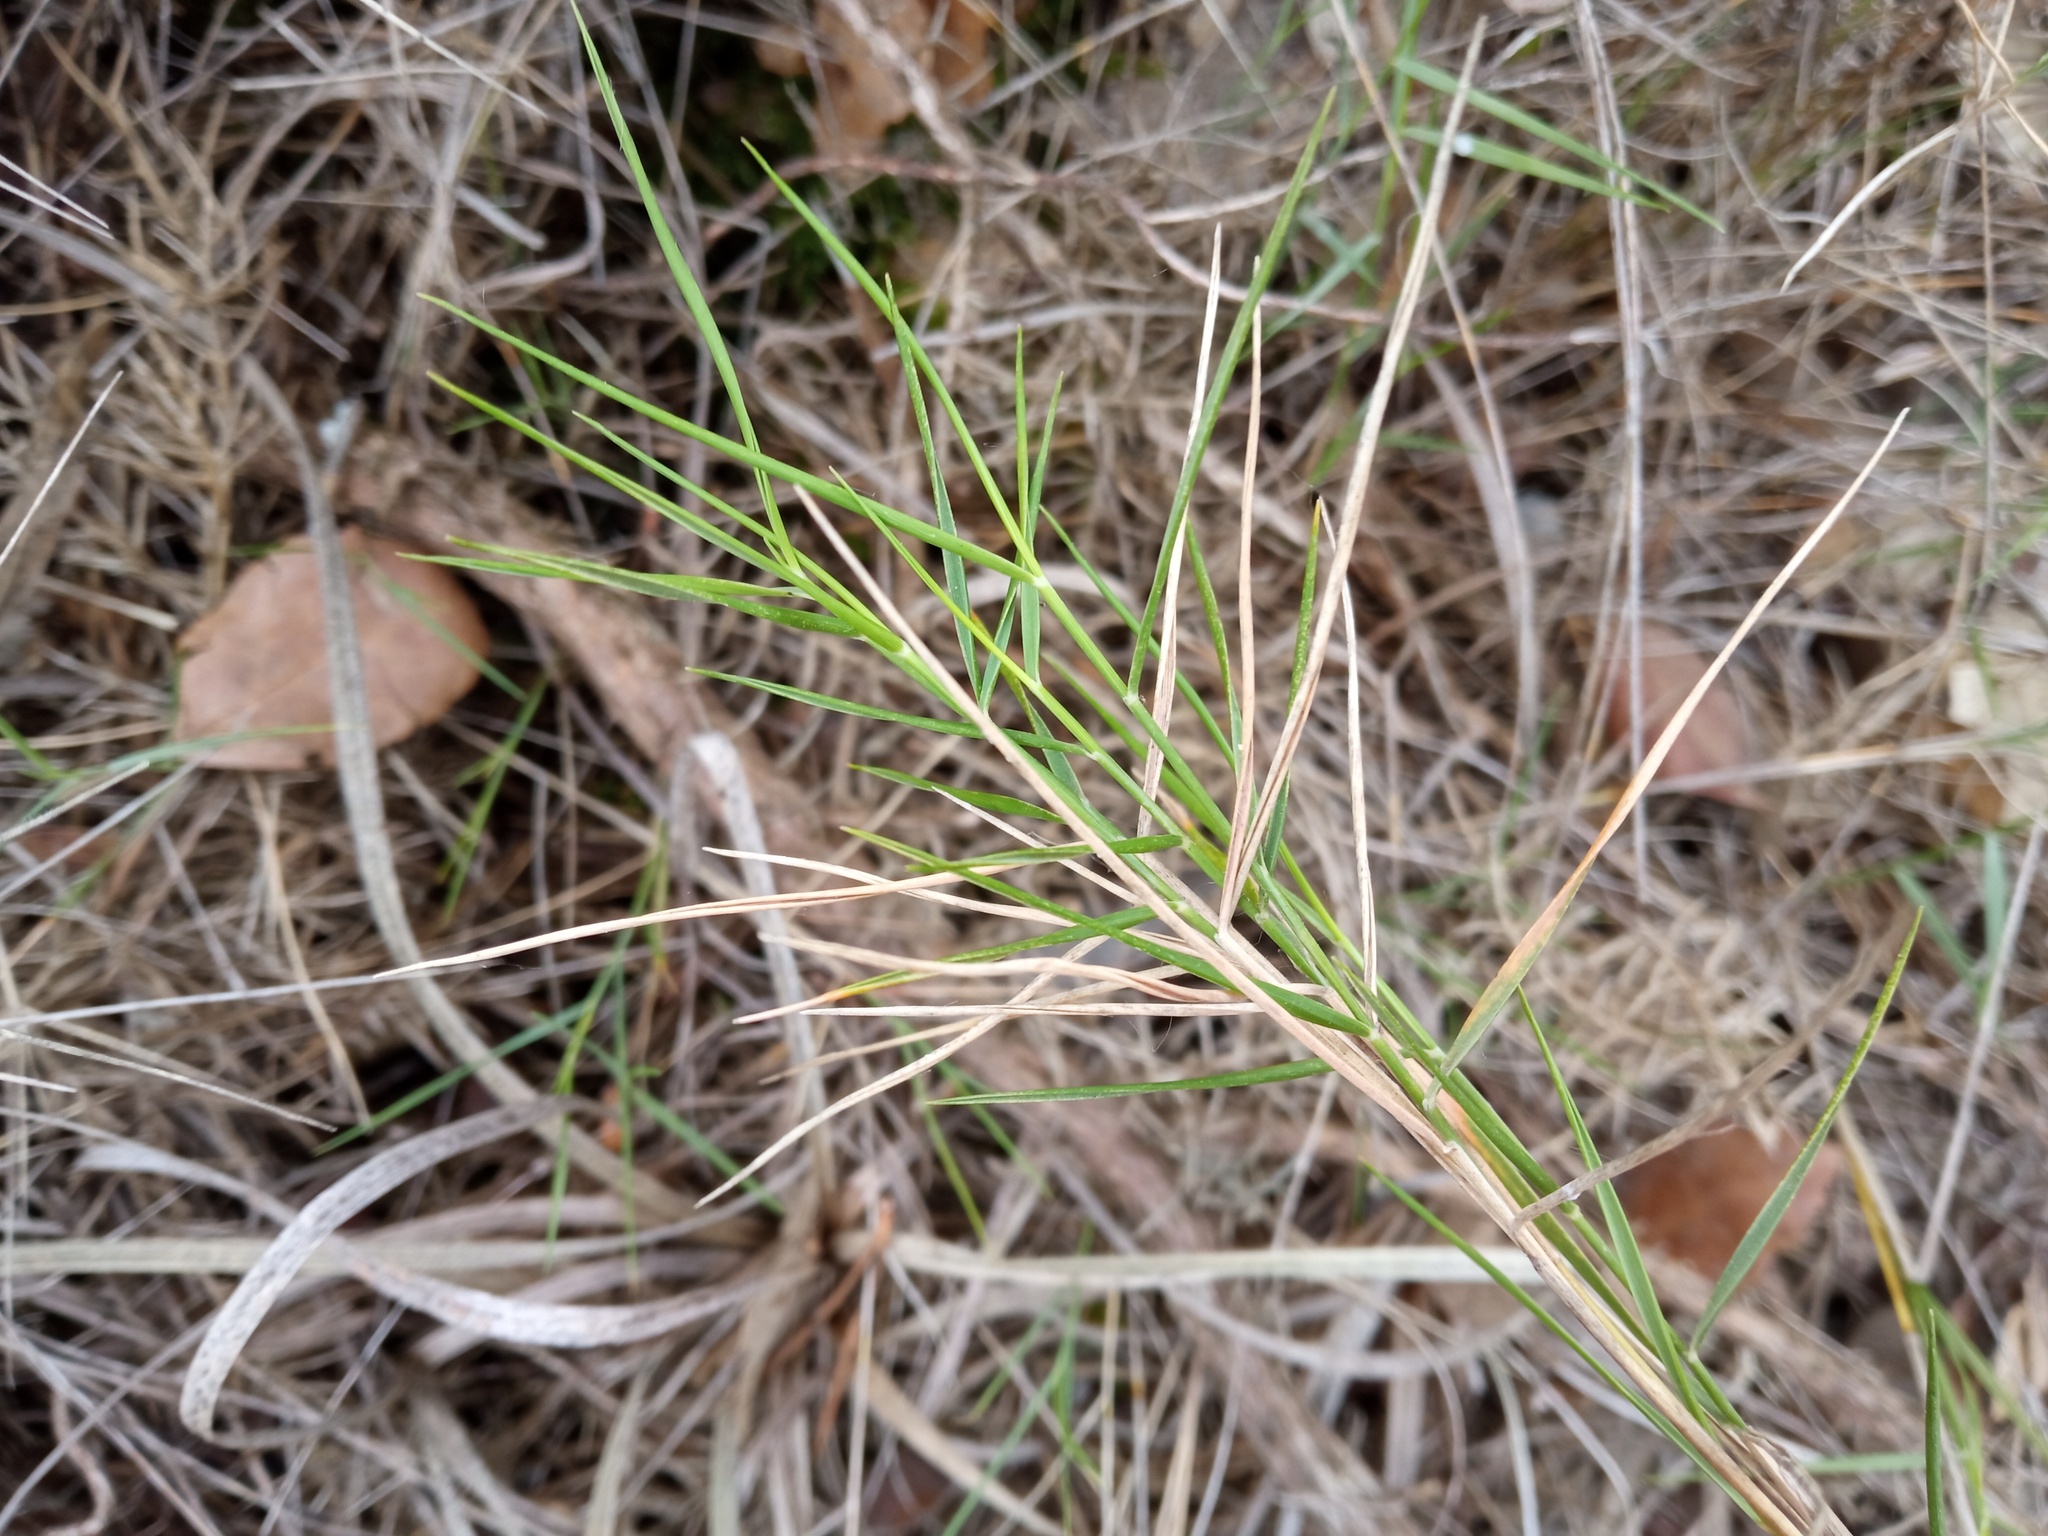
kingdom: Plantae
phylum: Tracheophyta
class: Liliopsida
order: Poales
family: Poaceae
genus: Brachypodium
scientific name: Brachypodium retusum
